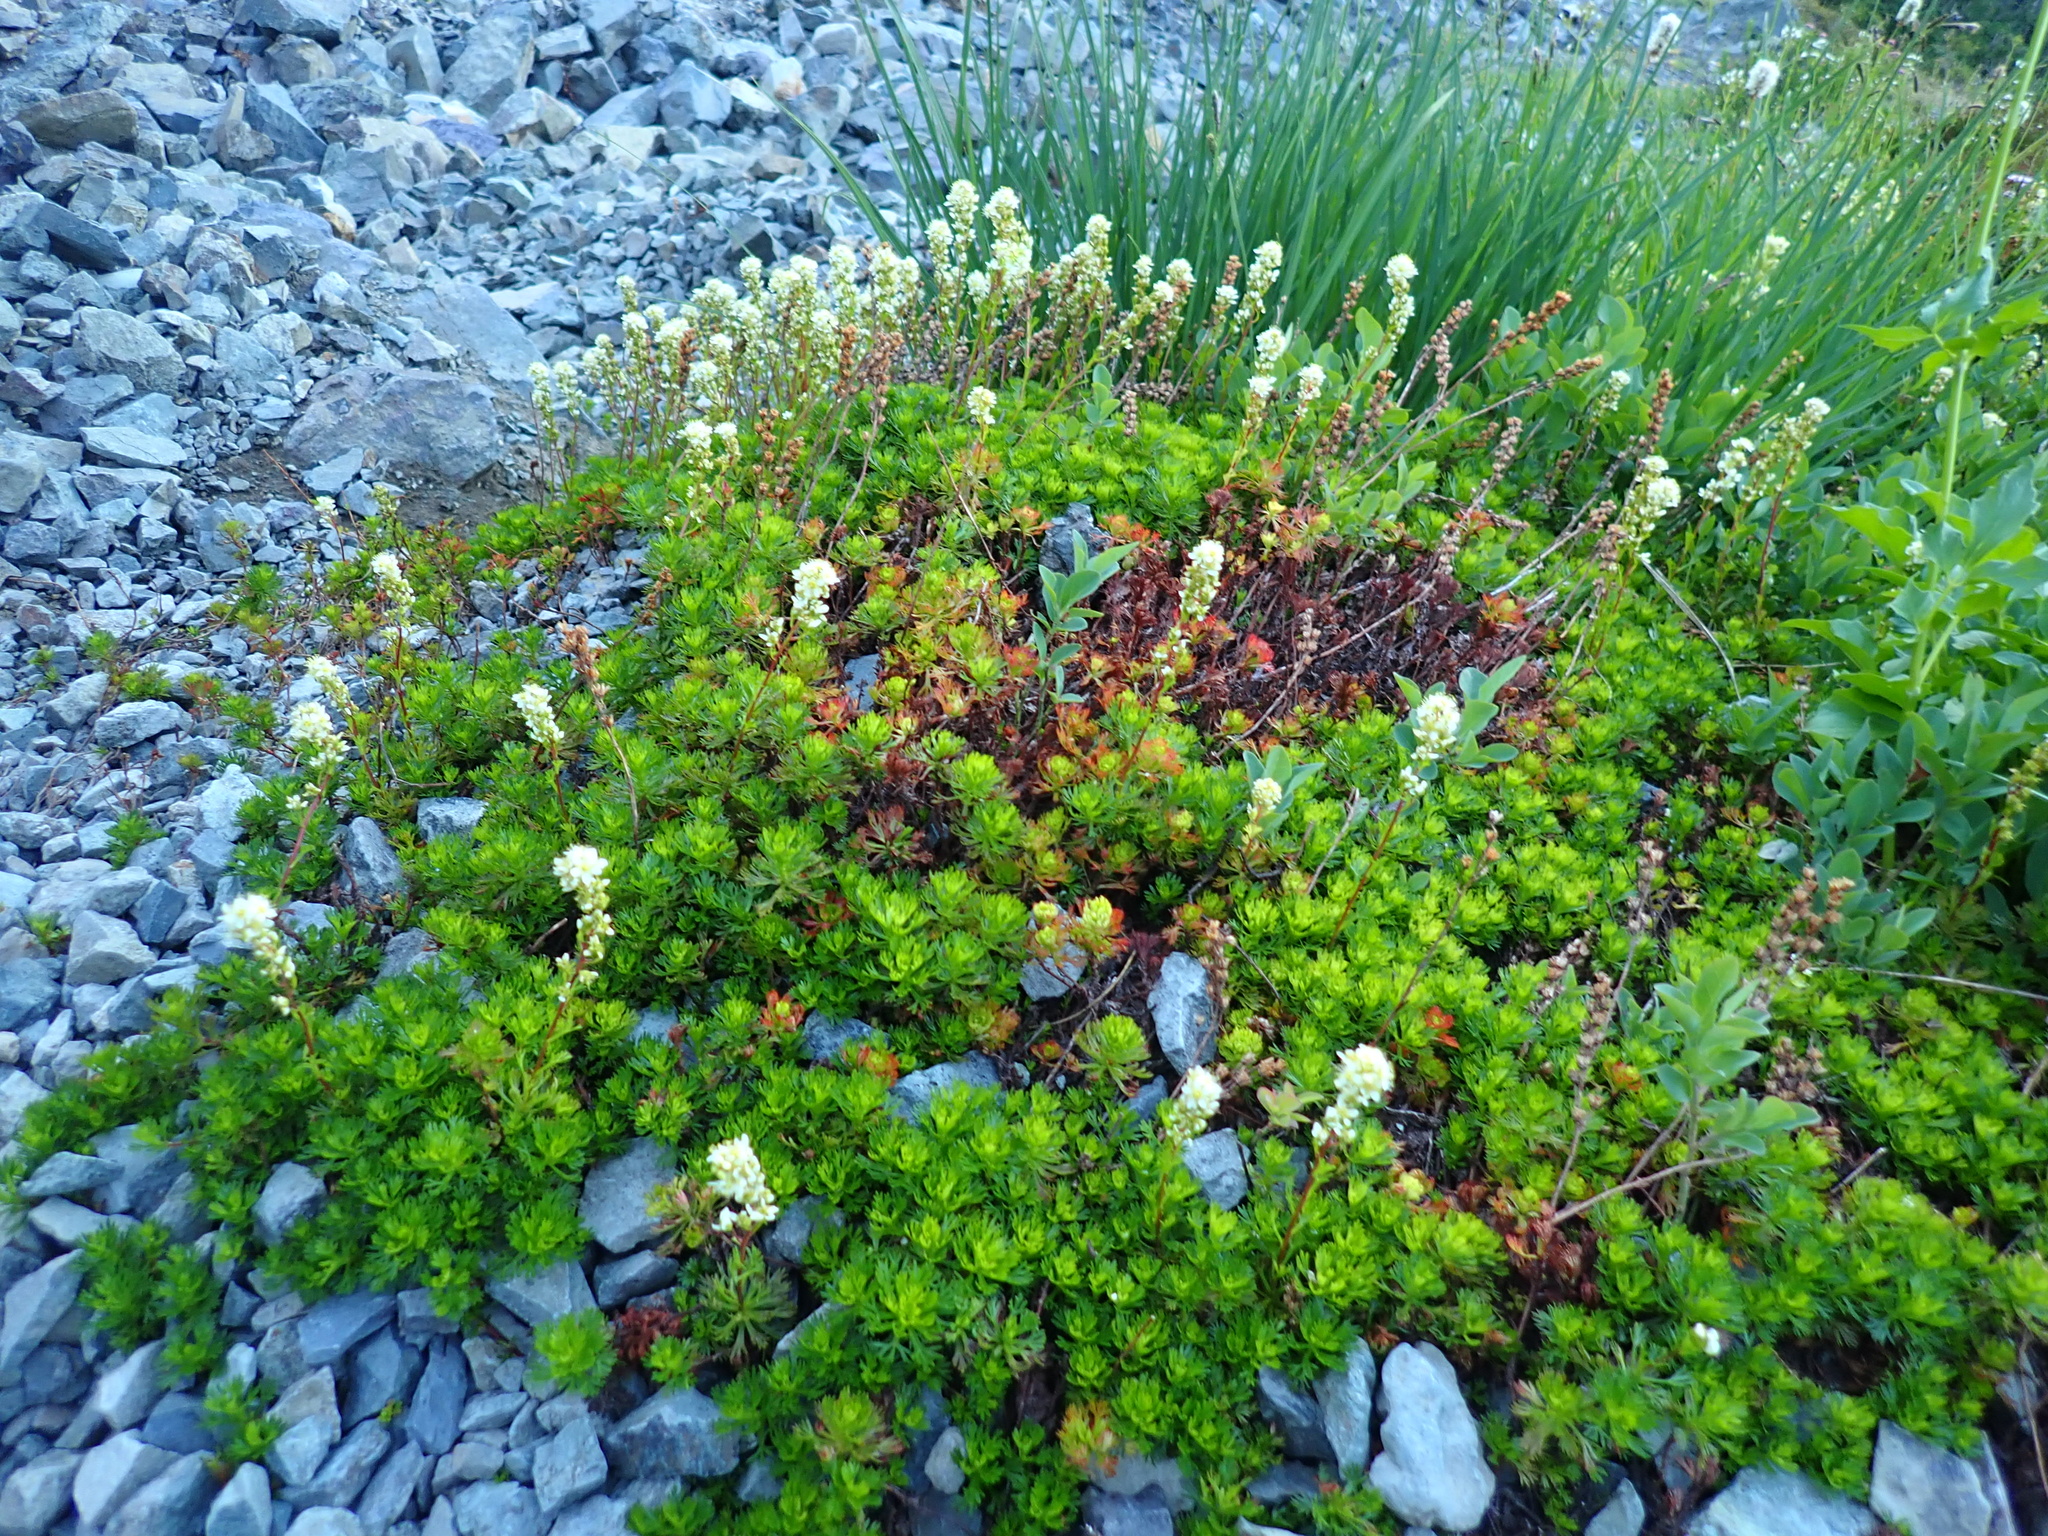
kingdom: Plantae
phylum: Tracheophyta
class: Magnoliopsida
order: Rosales
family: Rosaceae
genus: Luetkea
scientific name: Luetkea pectinata
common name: Partridgefoot
